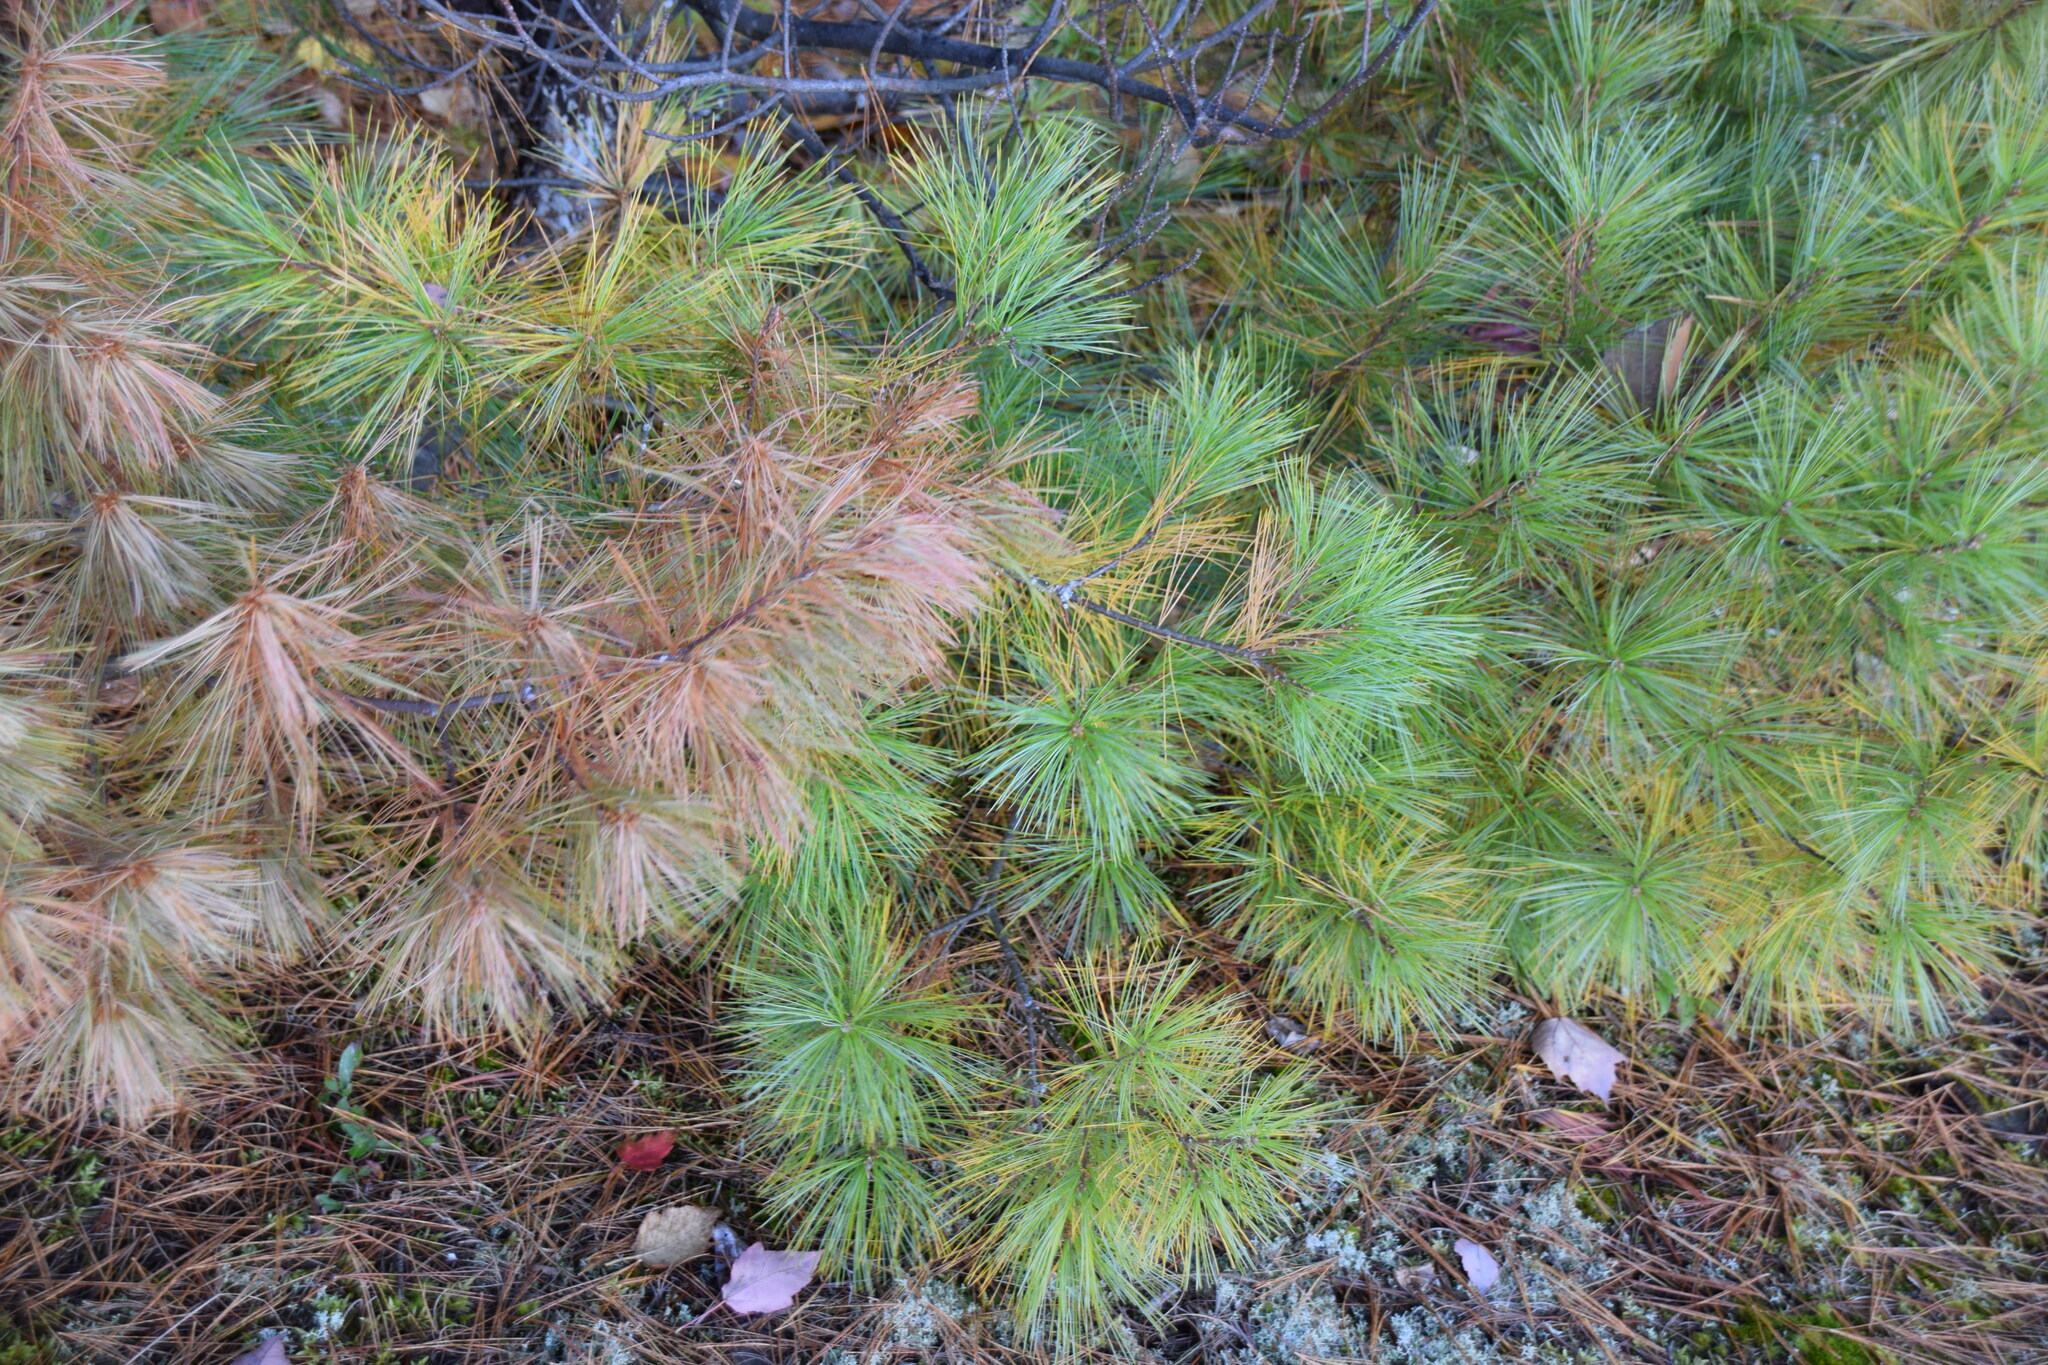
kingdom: Plantae
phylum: Tracheophyta
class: Pinopsida
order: Pinales
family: Pinaceae
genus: Pinus
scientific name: Pinus strobus
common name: Weymouth pine
